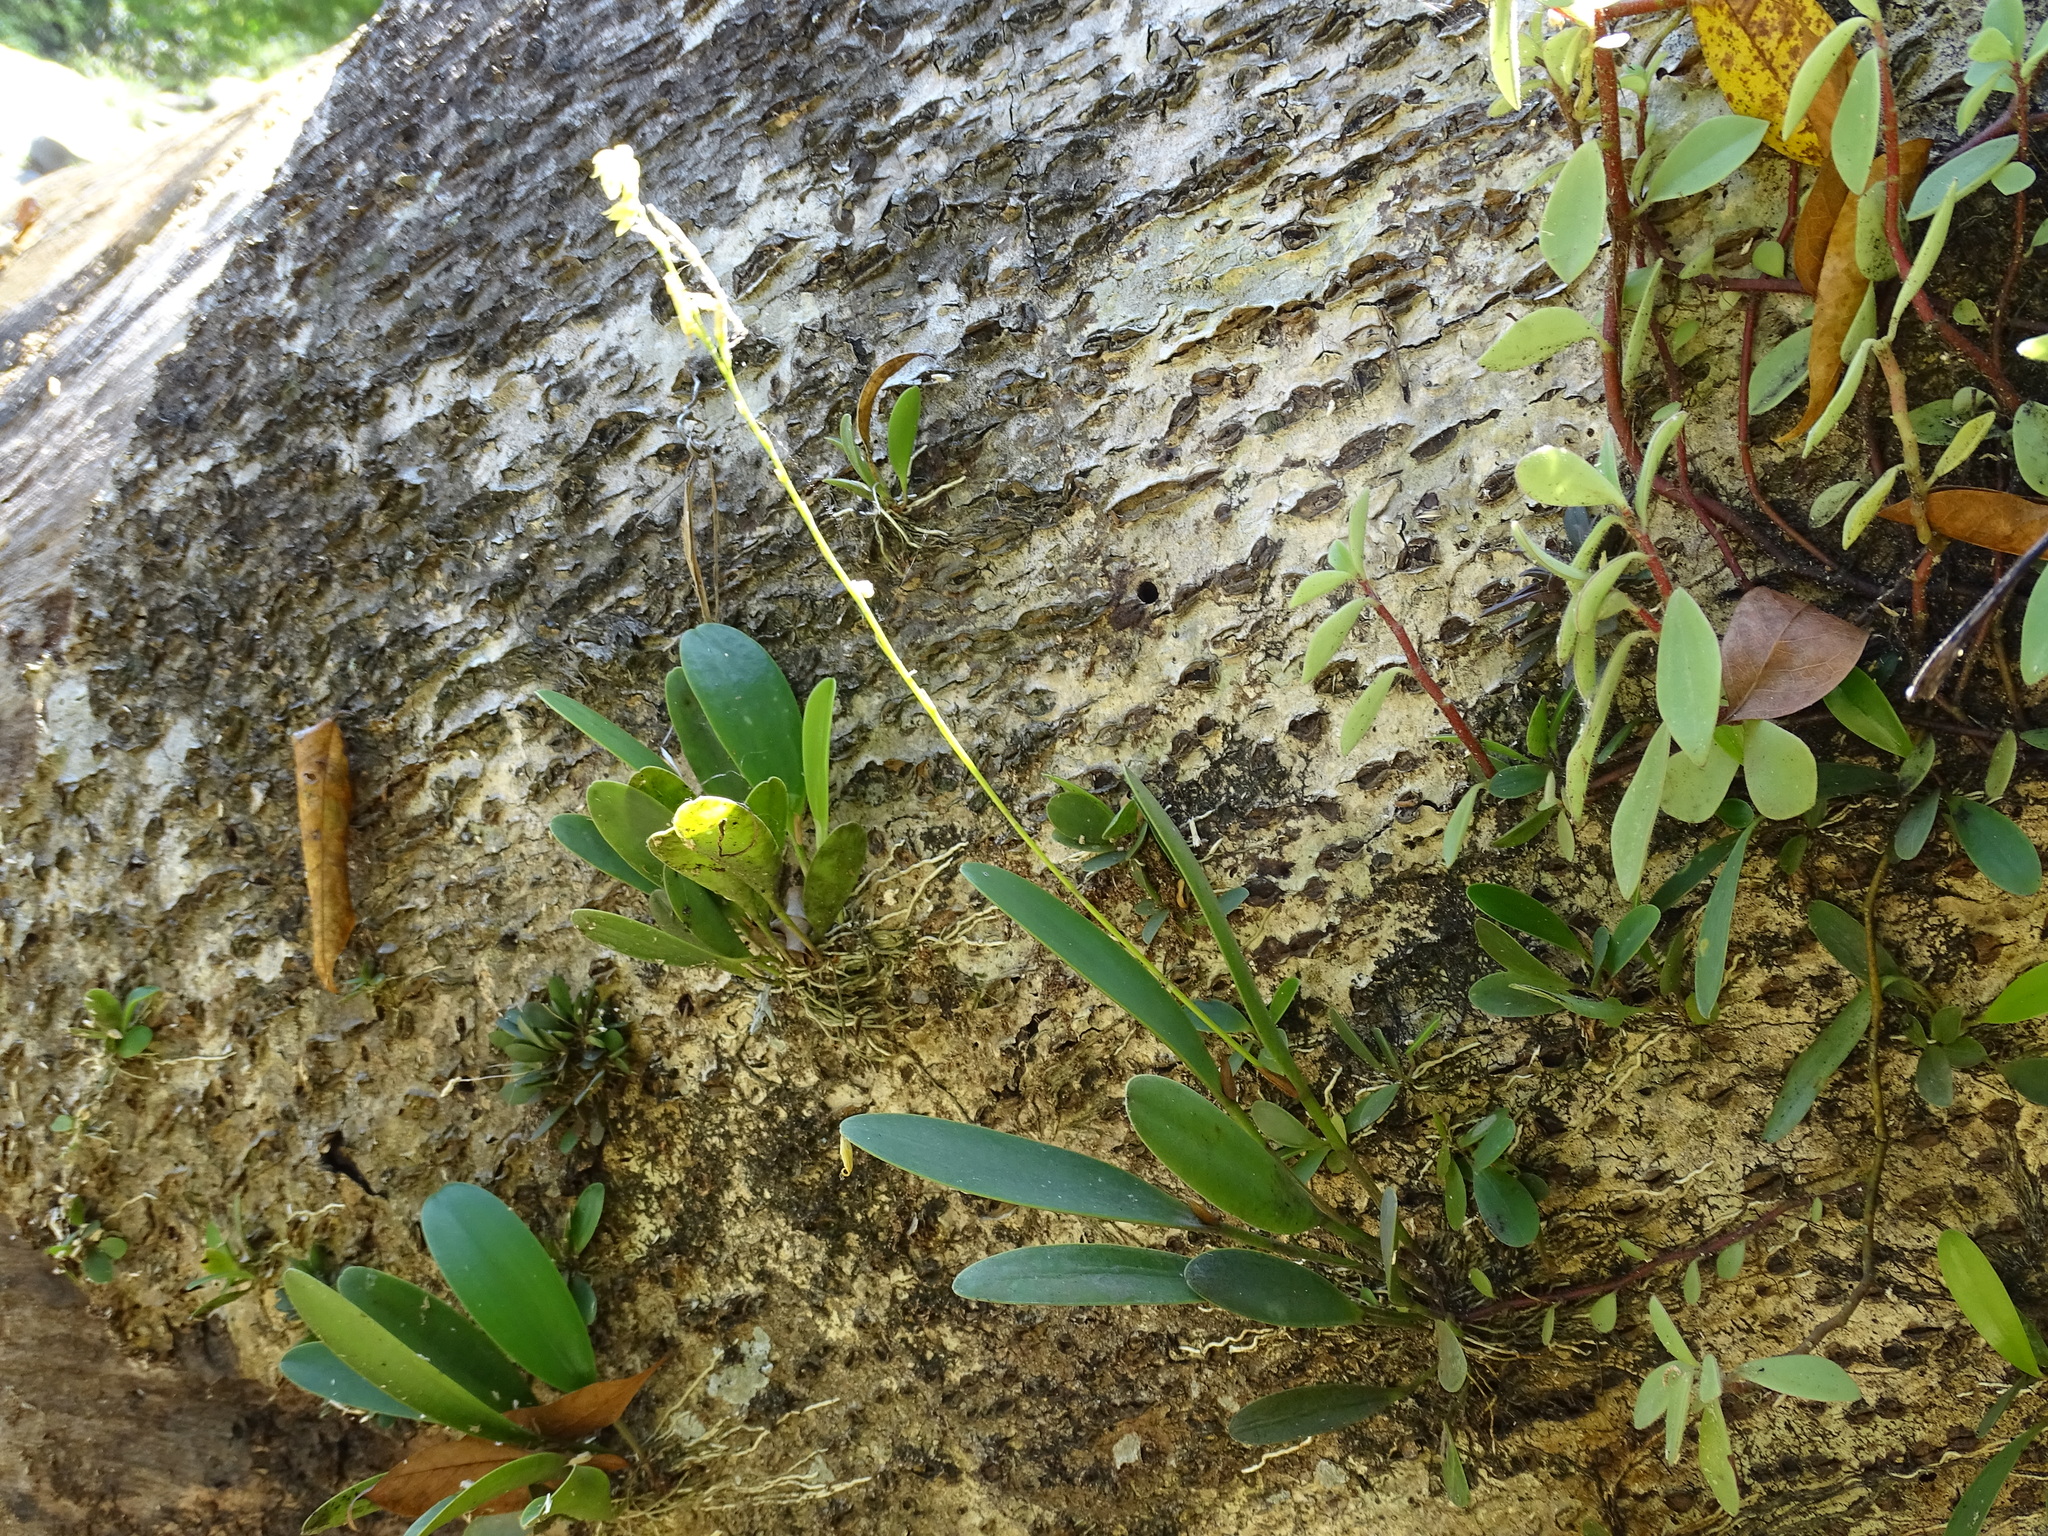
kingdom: Plantae
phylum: Tracheophyta
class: Liliopsida
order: Asparagales
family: Orchidaceae
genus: Pleurothallis
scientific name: Pleurothallis quadrifida
